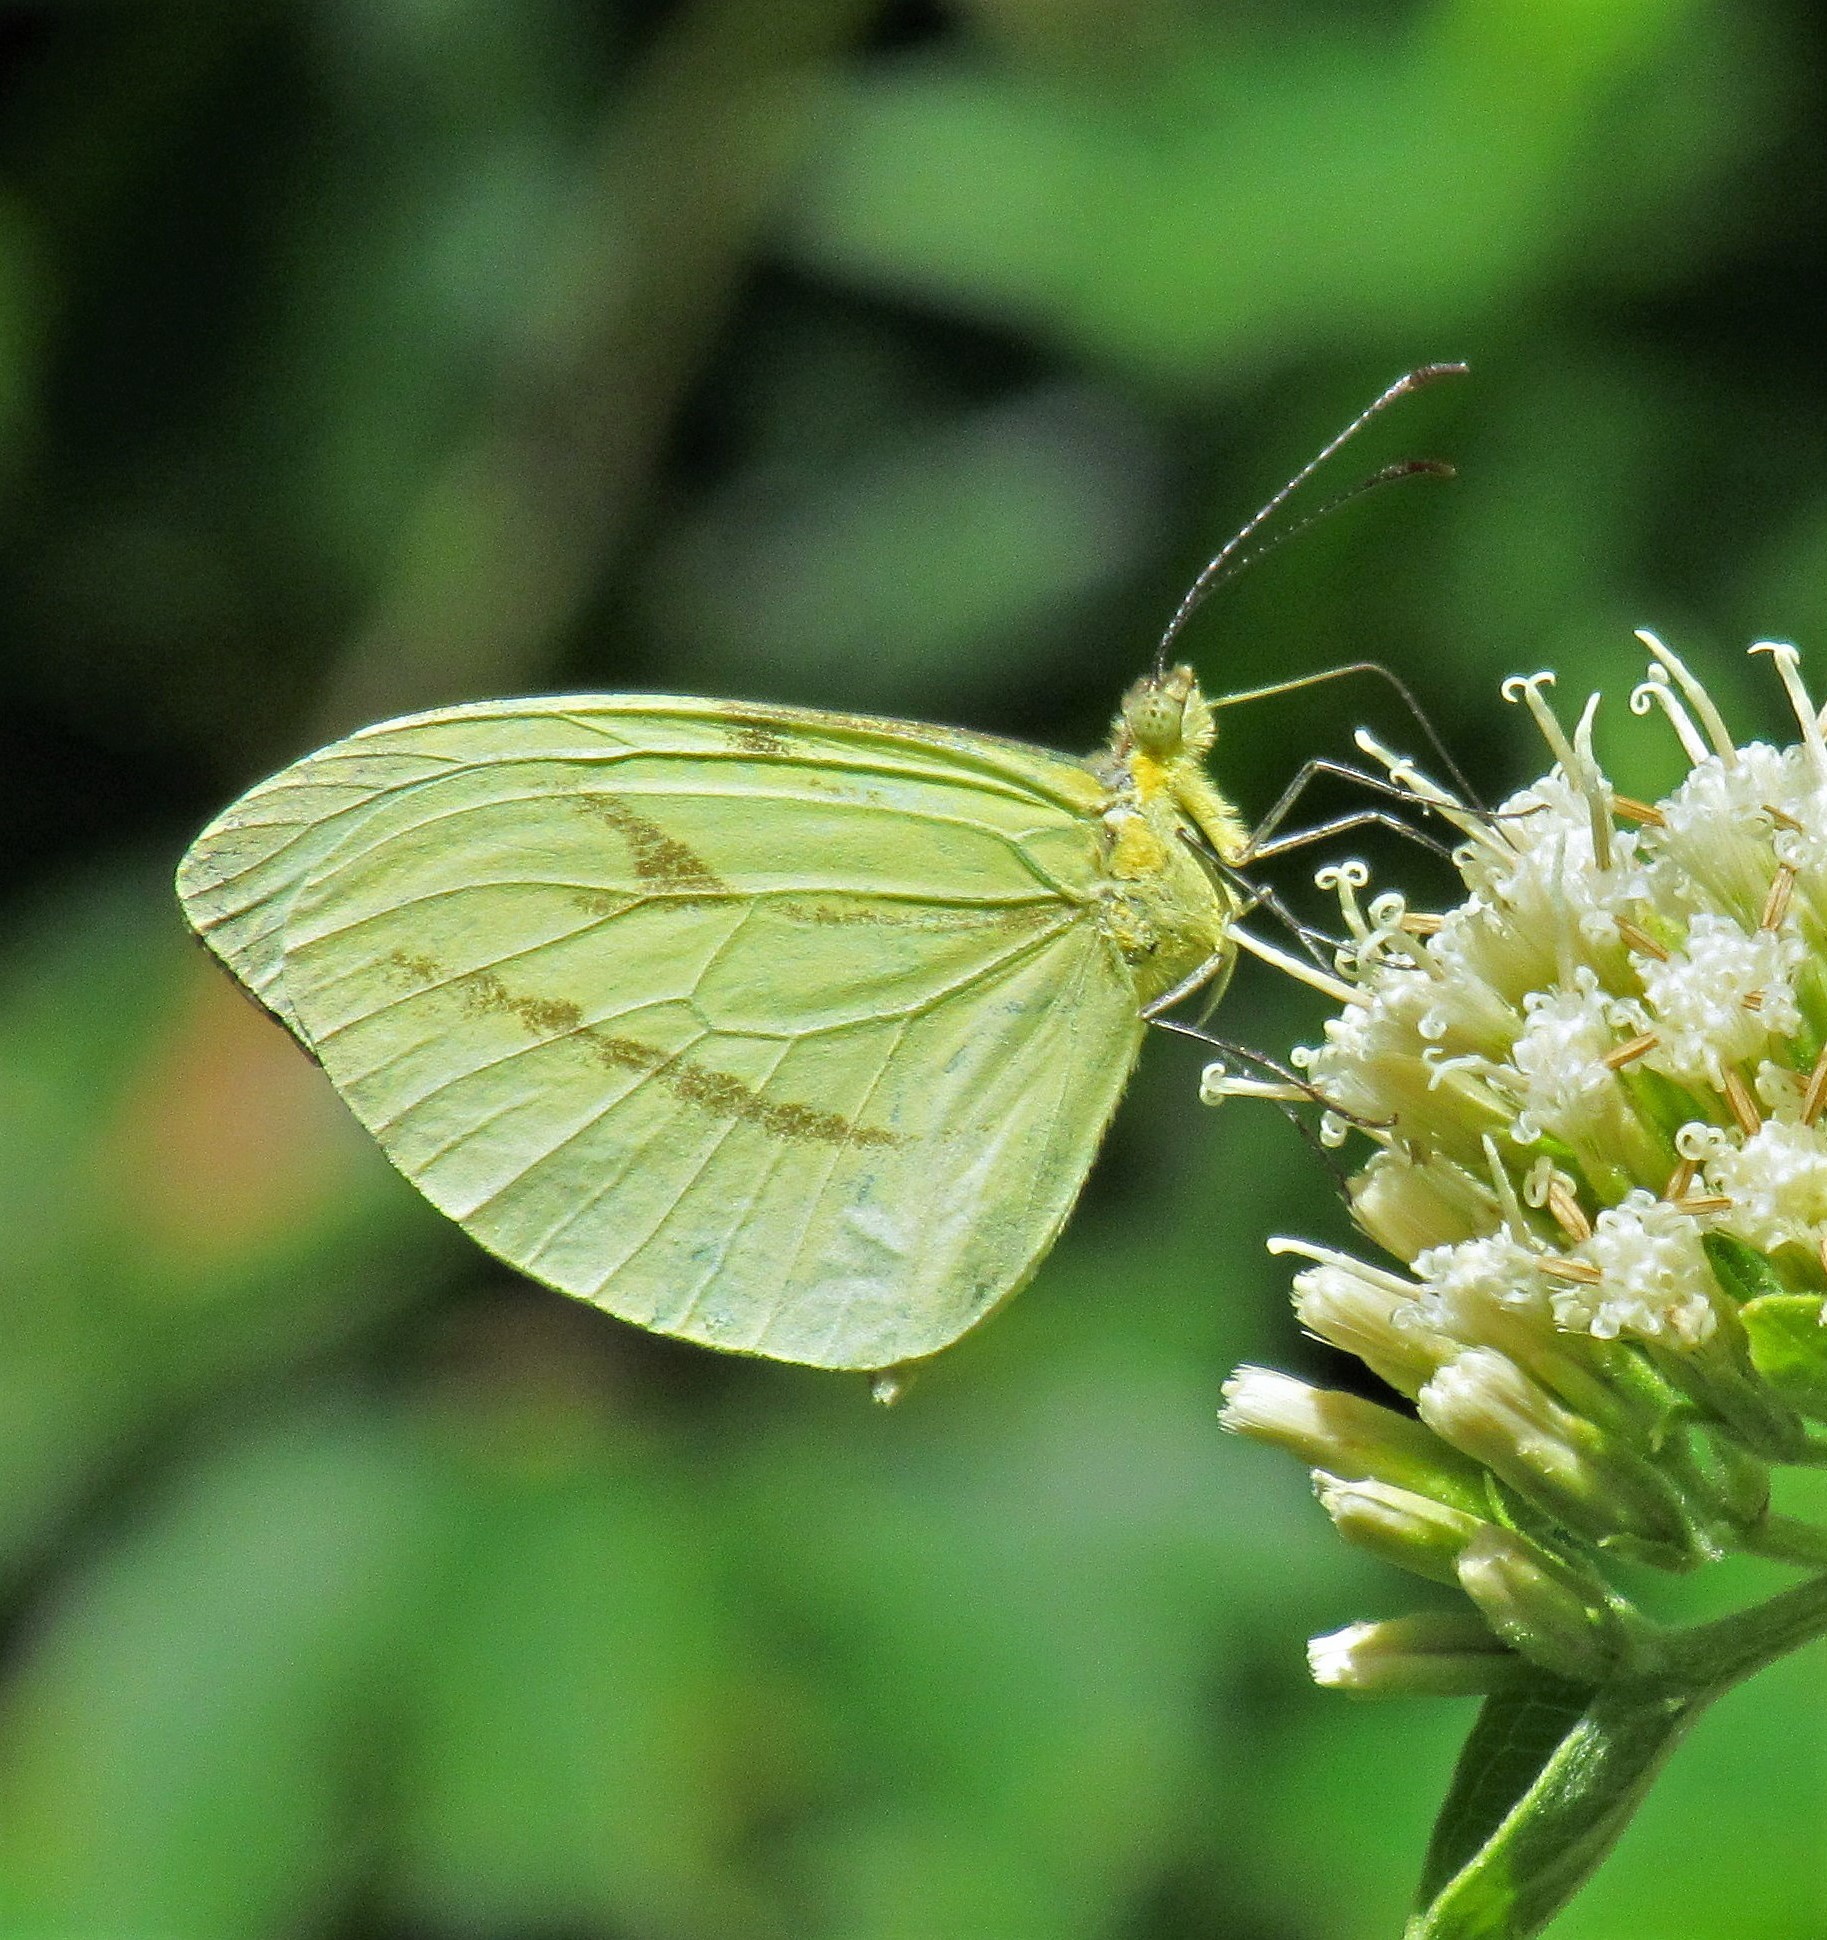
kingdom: Animalia
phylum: Arthropoda
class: Insecta
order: Lepidoptera
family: Pieridae
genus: Enantia
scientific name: Enantia lina
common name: White mimic-white
